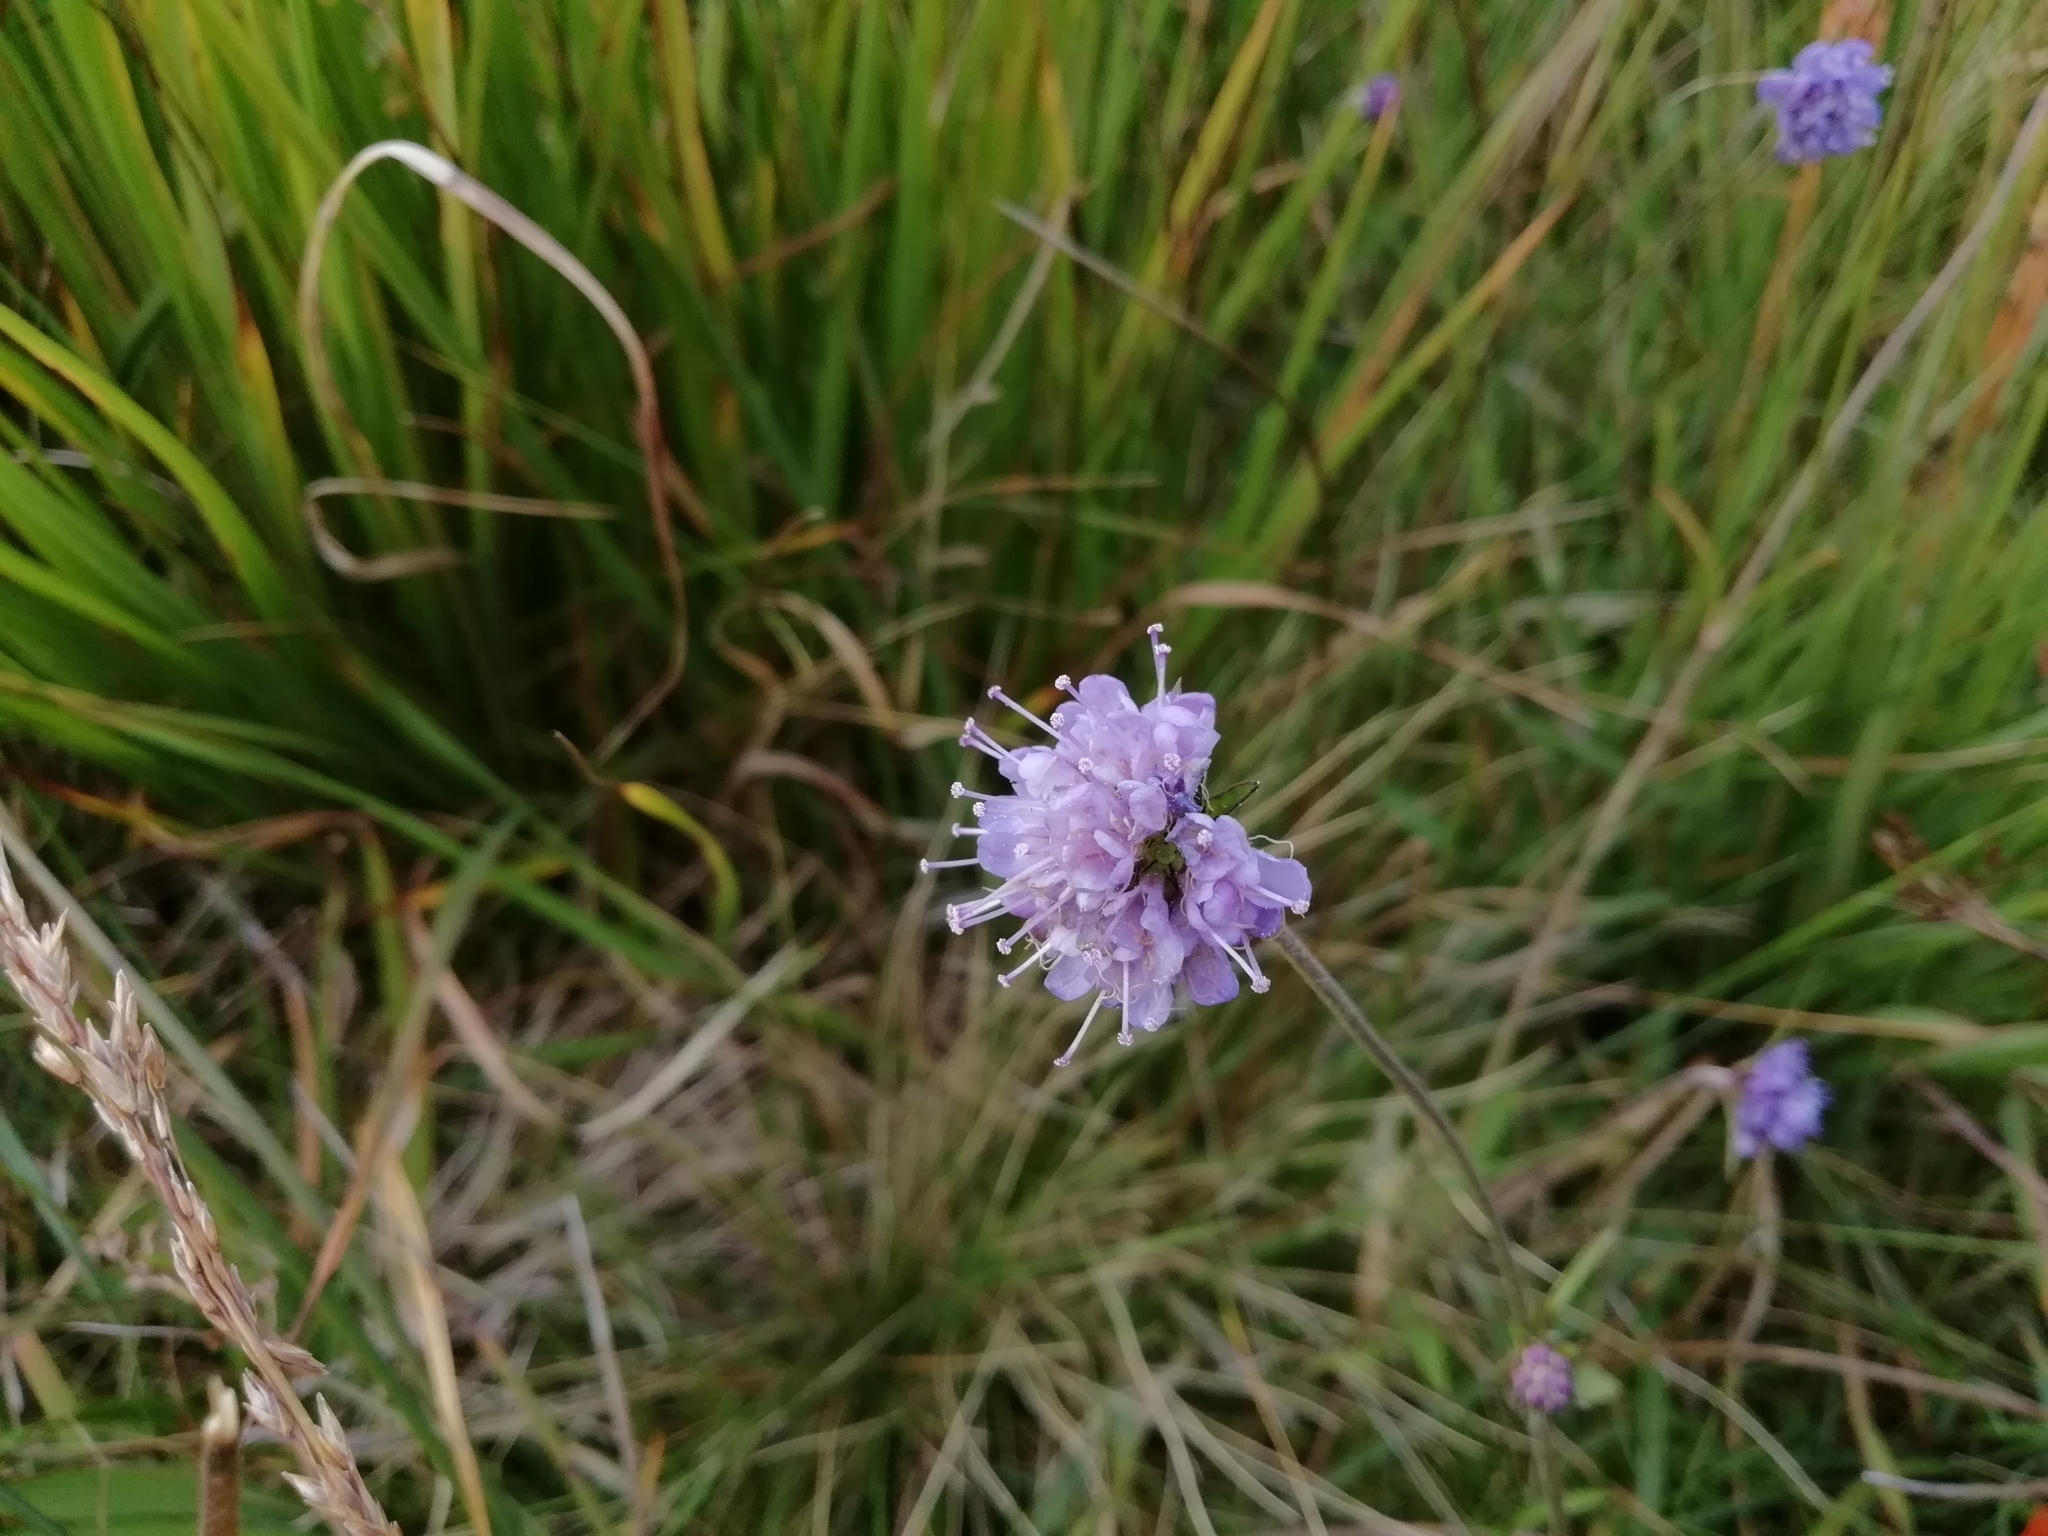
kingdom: Plantae
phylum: Tracheophyta
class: Magnoliopsida
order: Dipsacales
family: Caprifoliaceae
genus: Succisa
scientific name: Succisa pratensis
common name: Devil's-bit
